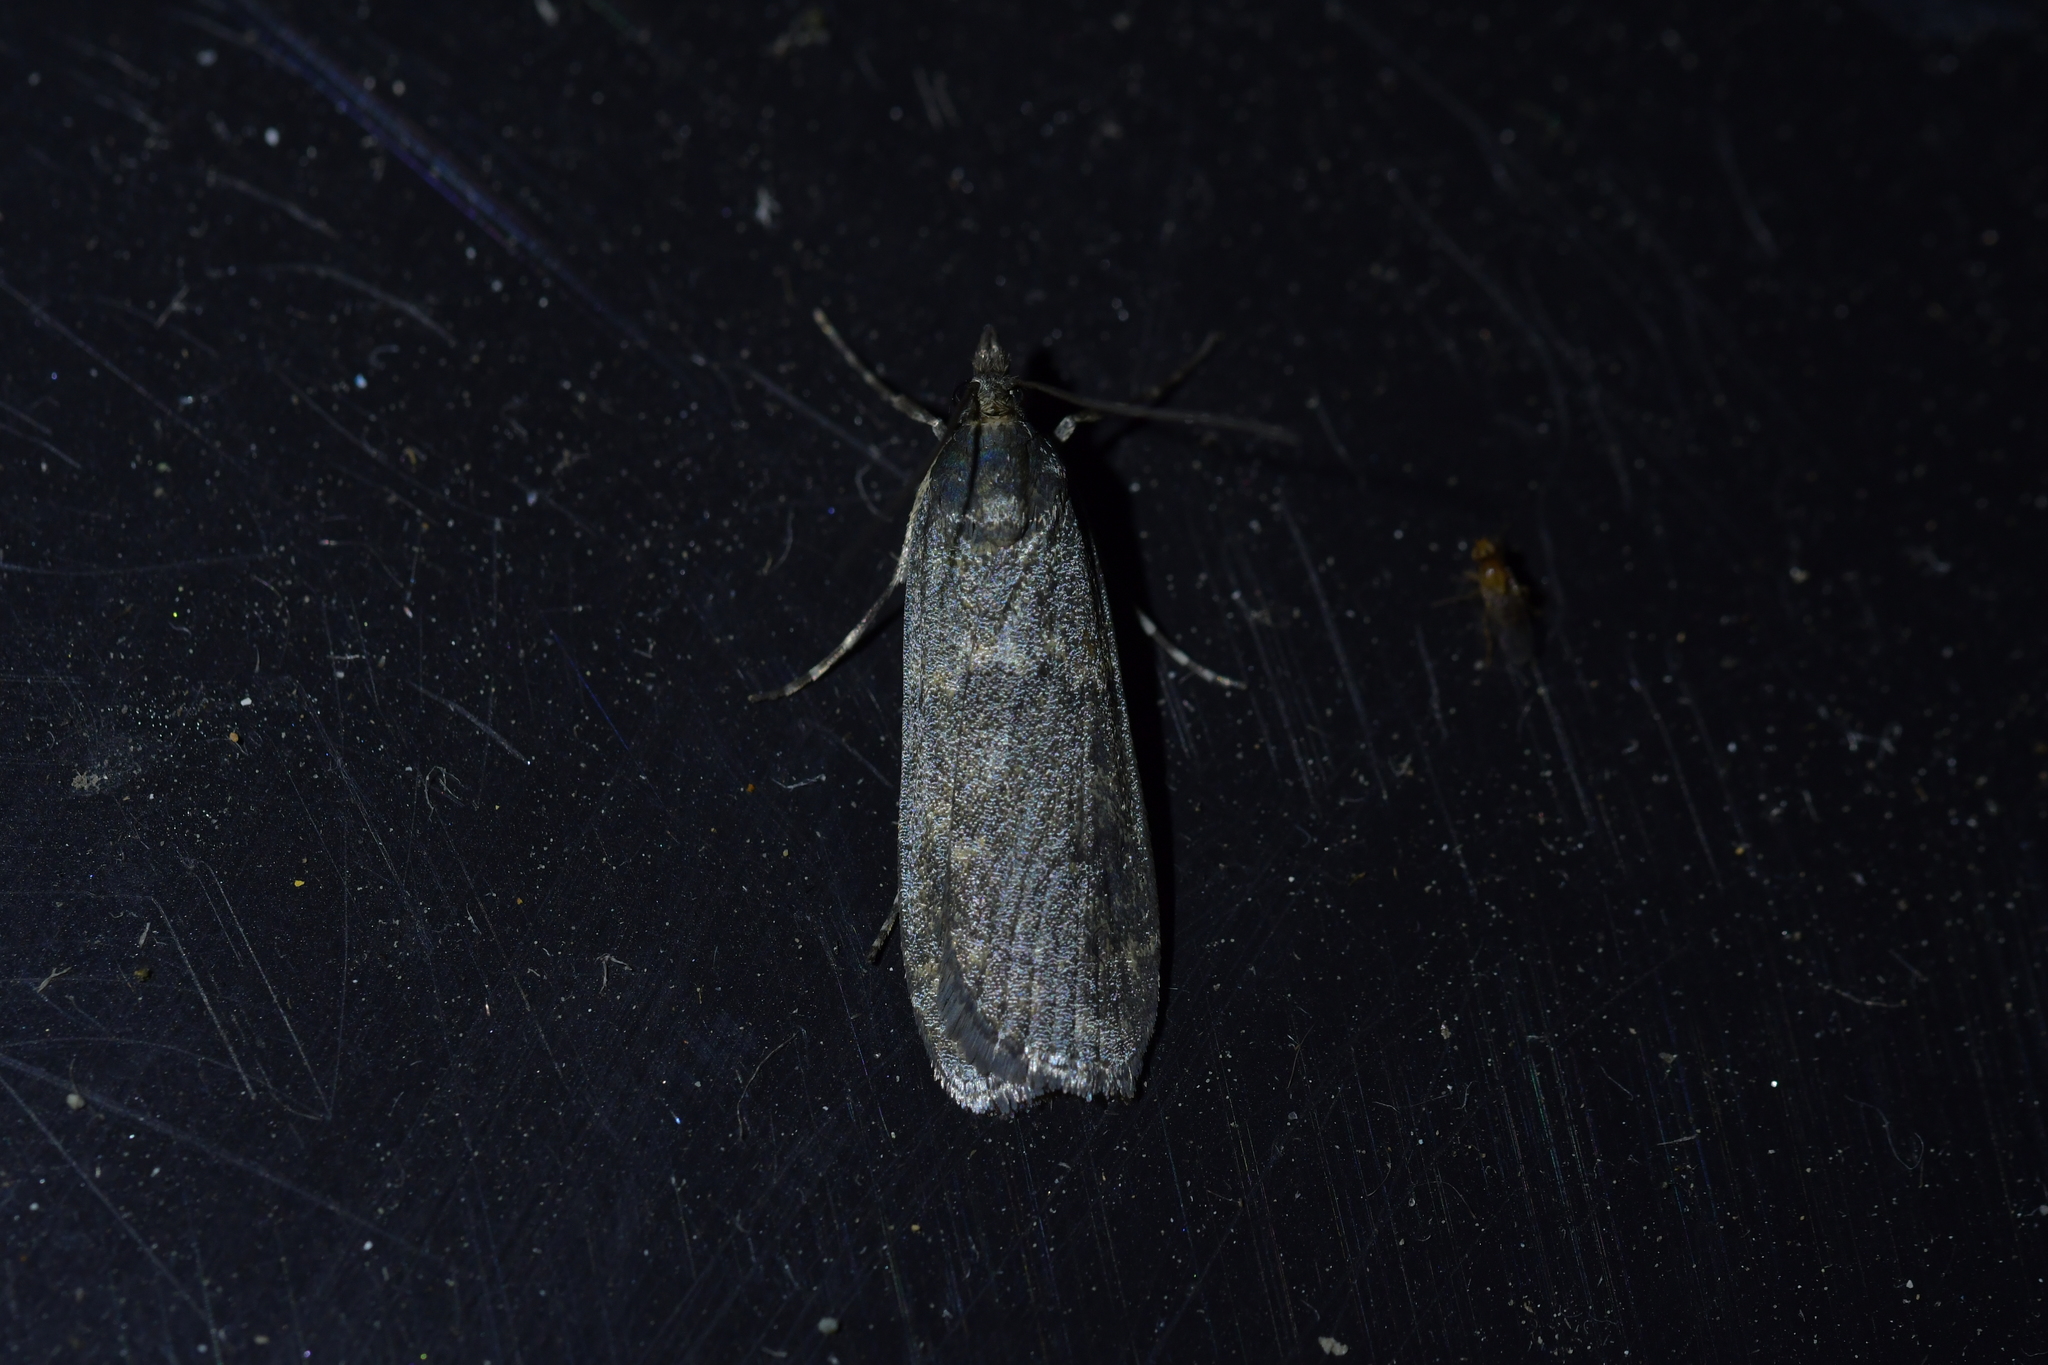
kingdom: Animalia
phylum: Arthropoda
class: Insecta
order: Lepidoptera
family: Crambidae
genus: Eudonia
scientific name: Eudonia cataxesta
